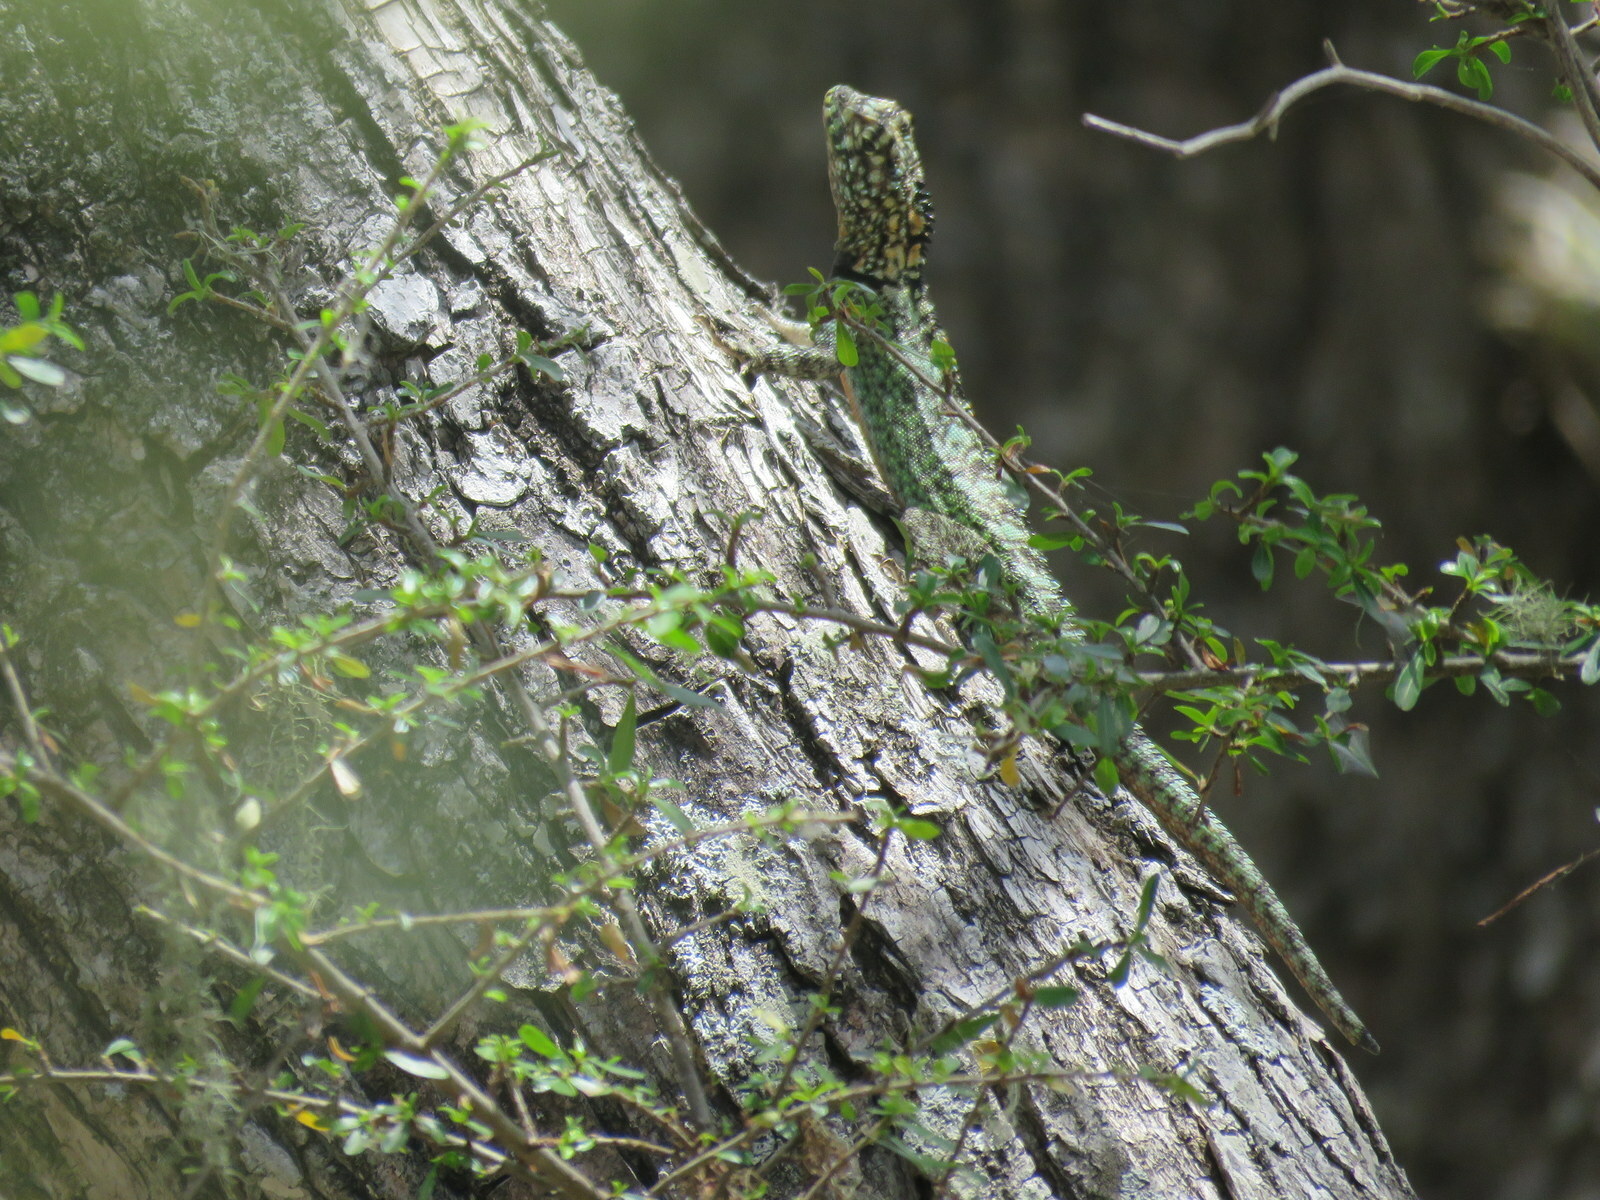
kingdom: Animalia
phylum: Chordata
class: Squamata
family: Tropiduridae
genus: Tropidurus
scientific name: Tropidurus spinulosus
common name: Spiny lava lizard
